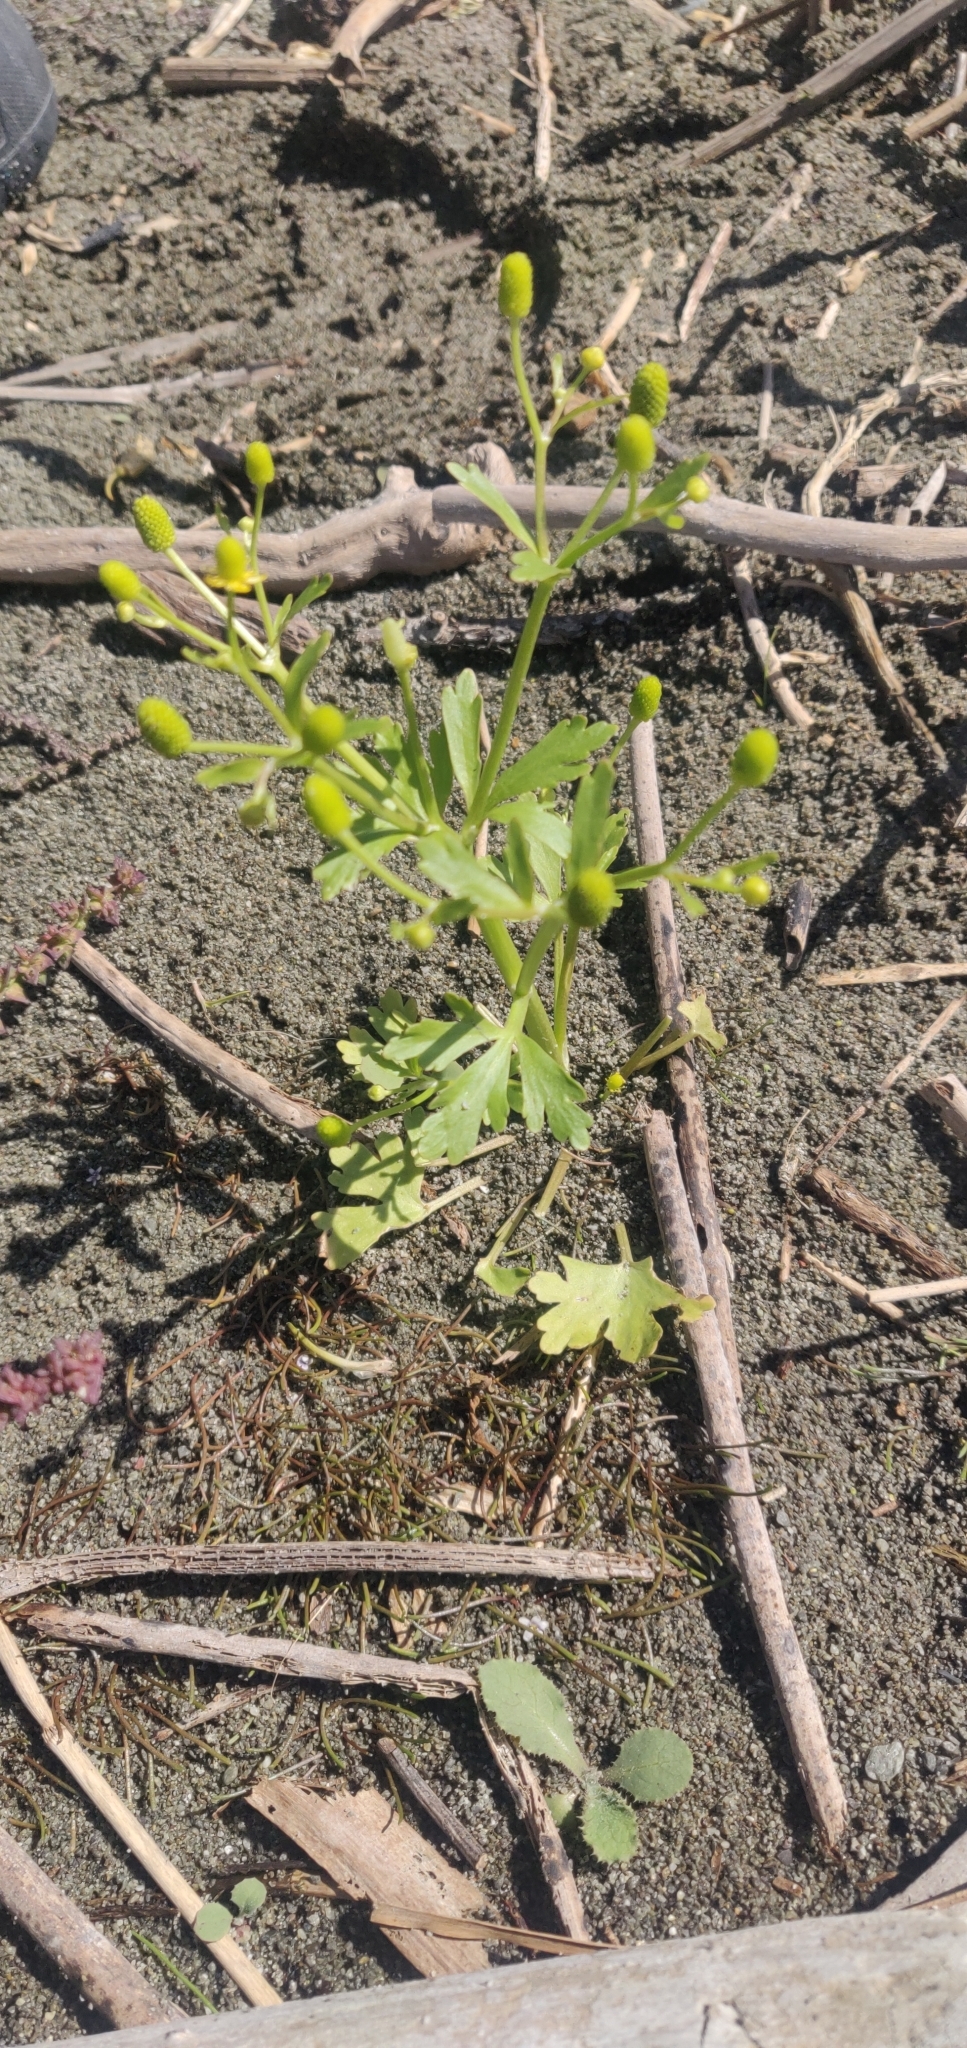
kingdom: Plantae
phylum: Tracheophyta
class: Magnoliopsida
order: Ranunculales
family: Ranunculaceae
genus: Ranunculus
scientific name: Ranunculus sceleratus
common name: Celery-leaved buttercup
